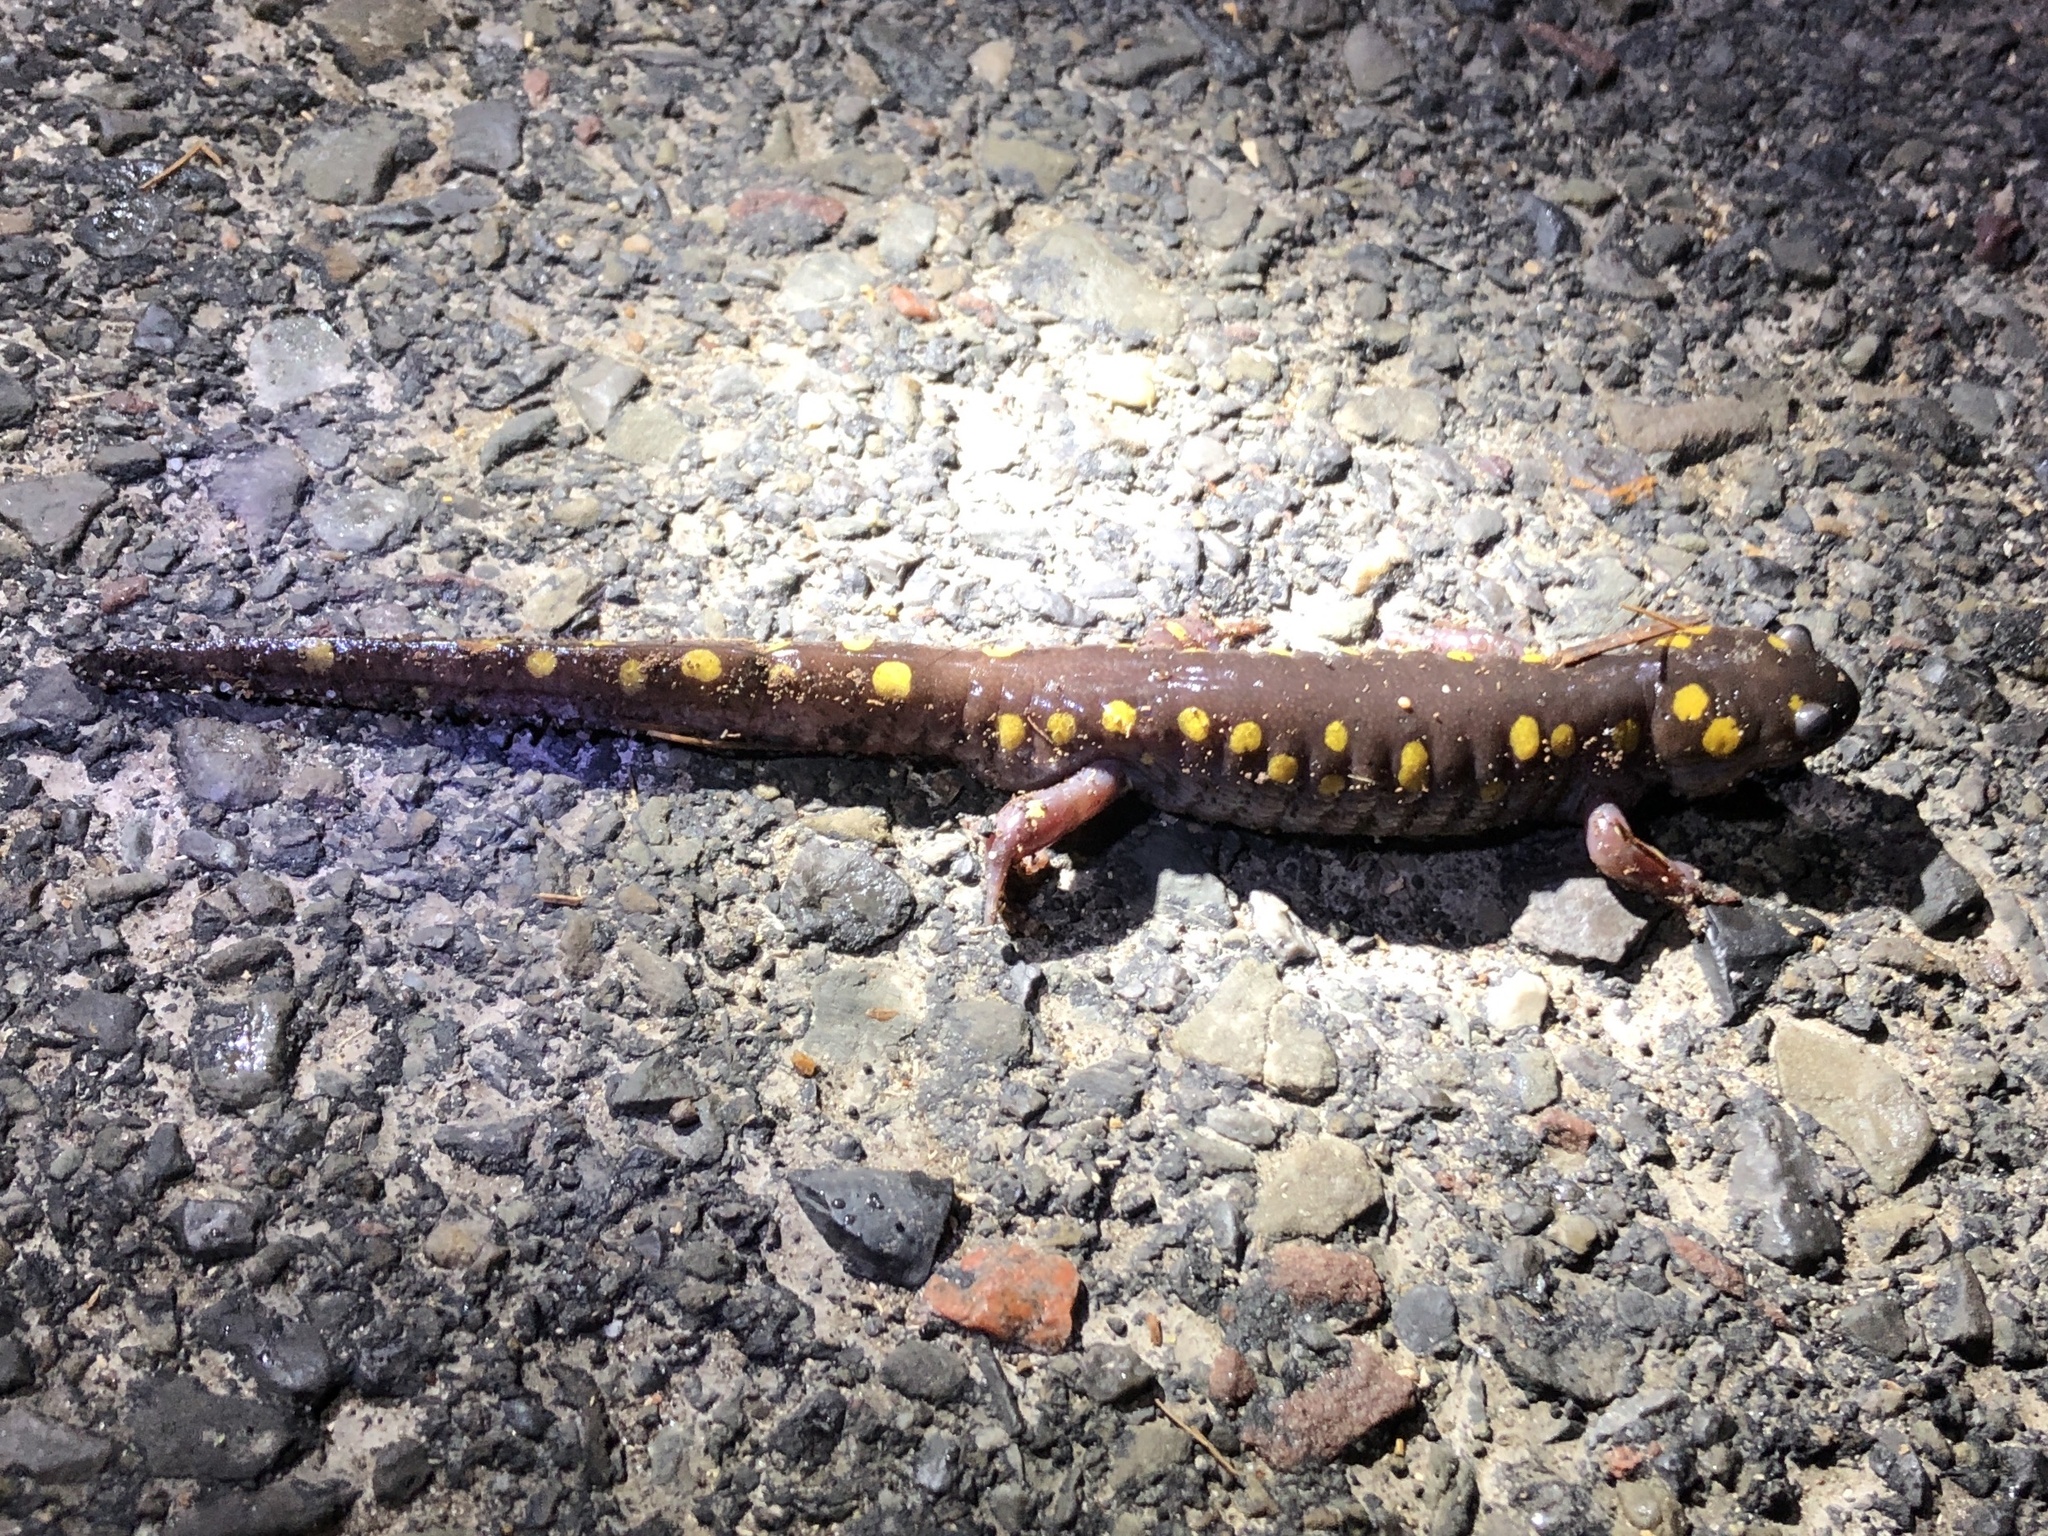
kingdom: Animalia
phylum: Chordata
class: Amphibia
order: Caudata
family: Ambystomatidae
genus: Ambystoma
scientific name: Ambystoma maculatum
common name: Spotted salamander
